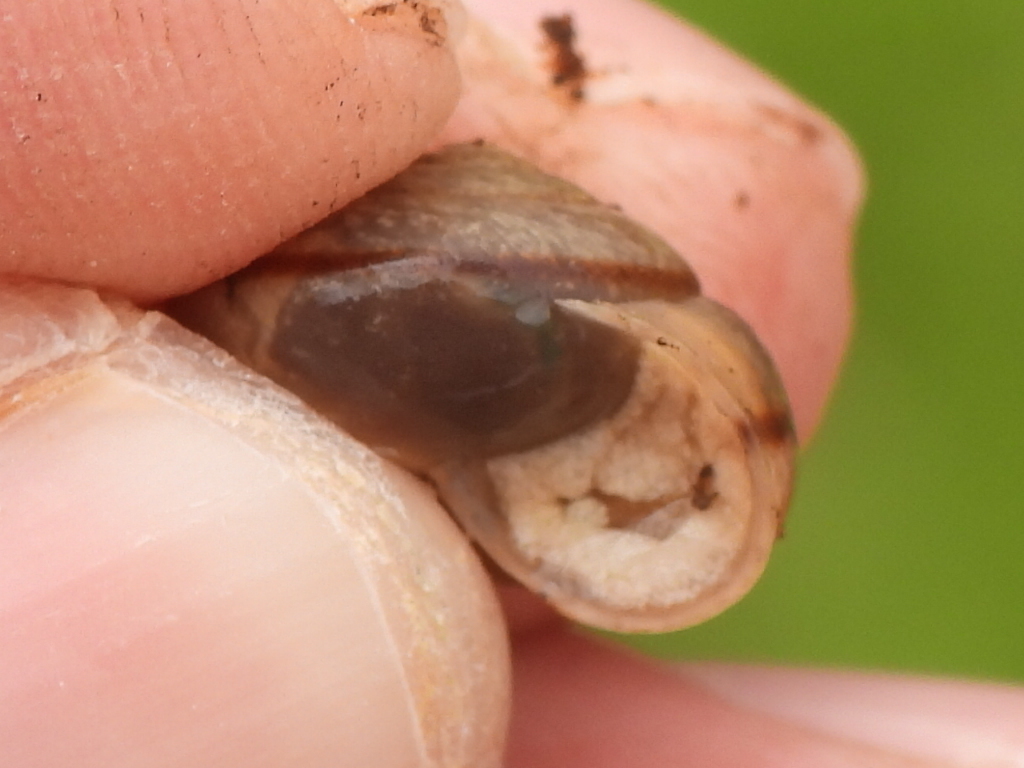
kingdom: Animalia
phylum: Mollusca
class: Gastropoda
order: Stylommatophora
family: Camaenidae
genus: Bradybaena
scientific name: Bradybaena similaris
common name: Asian trampsnail
